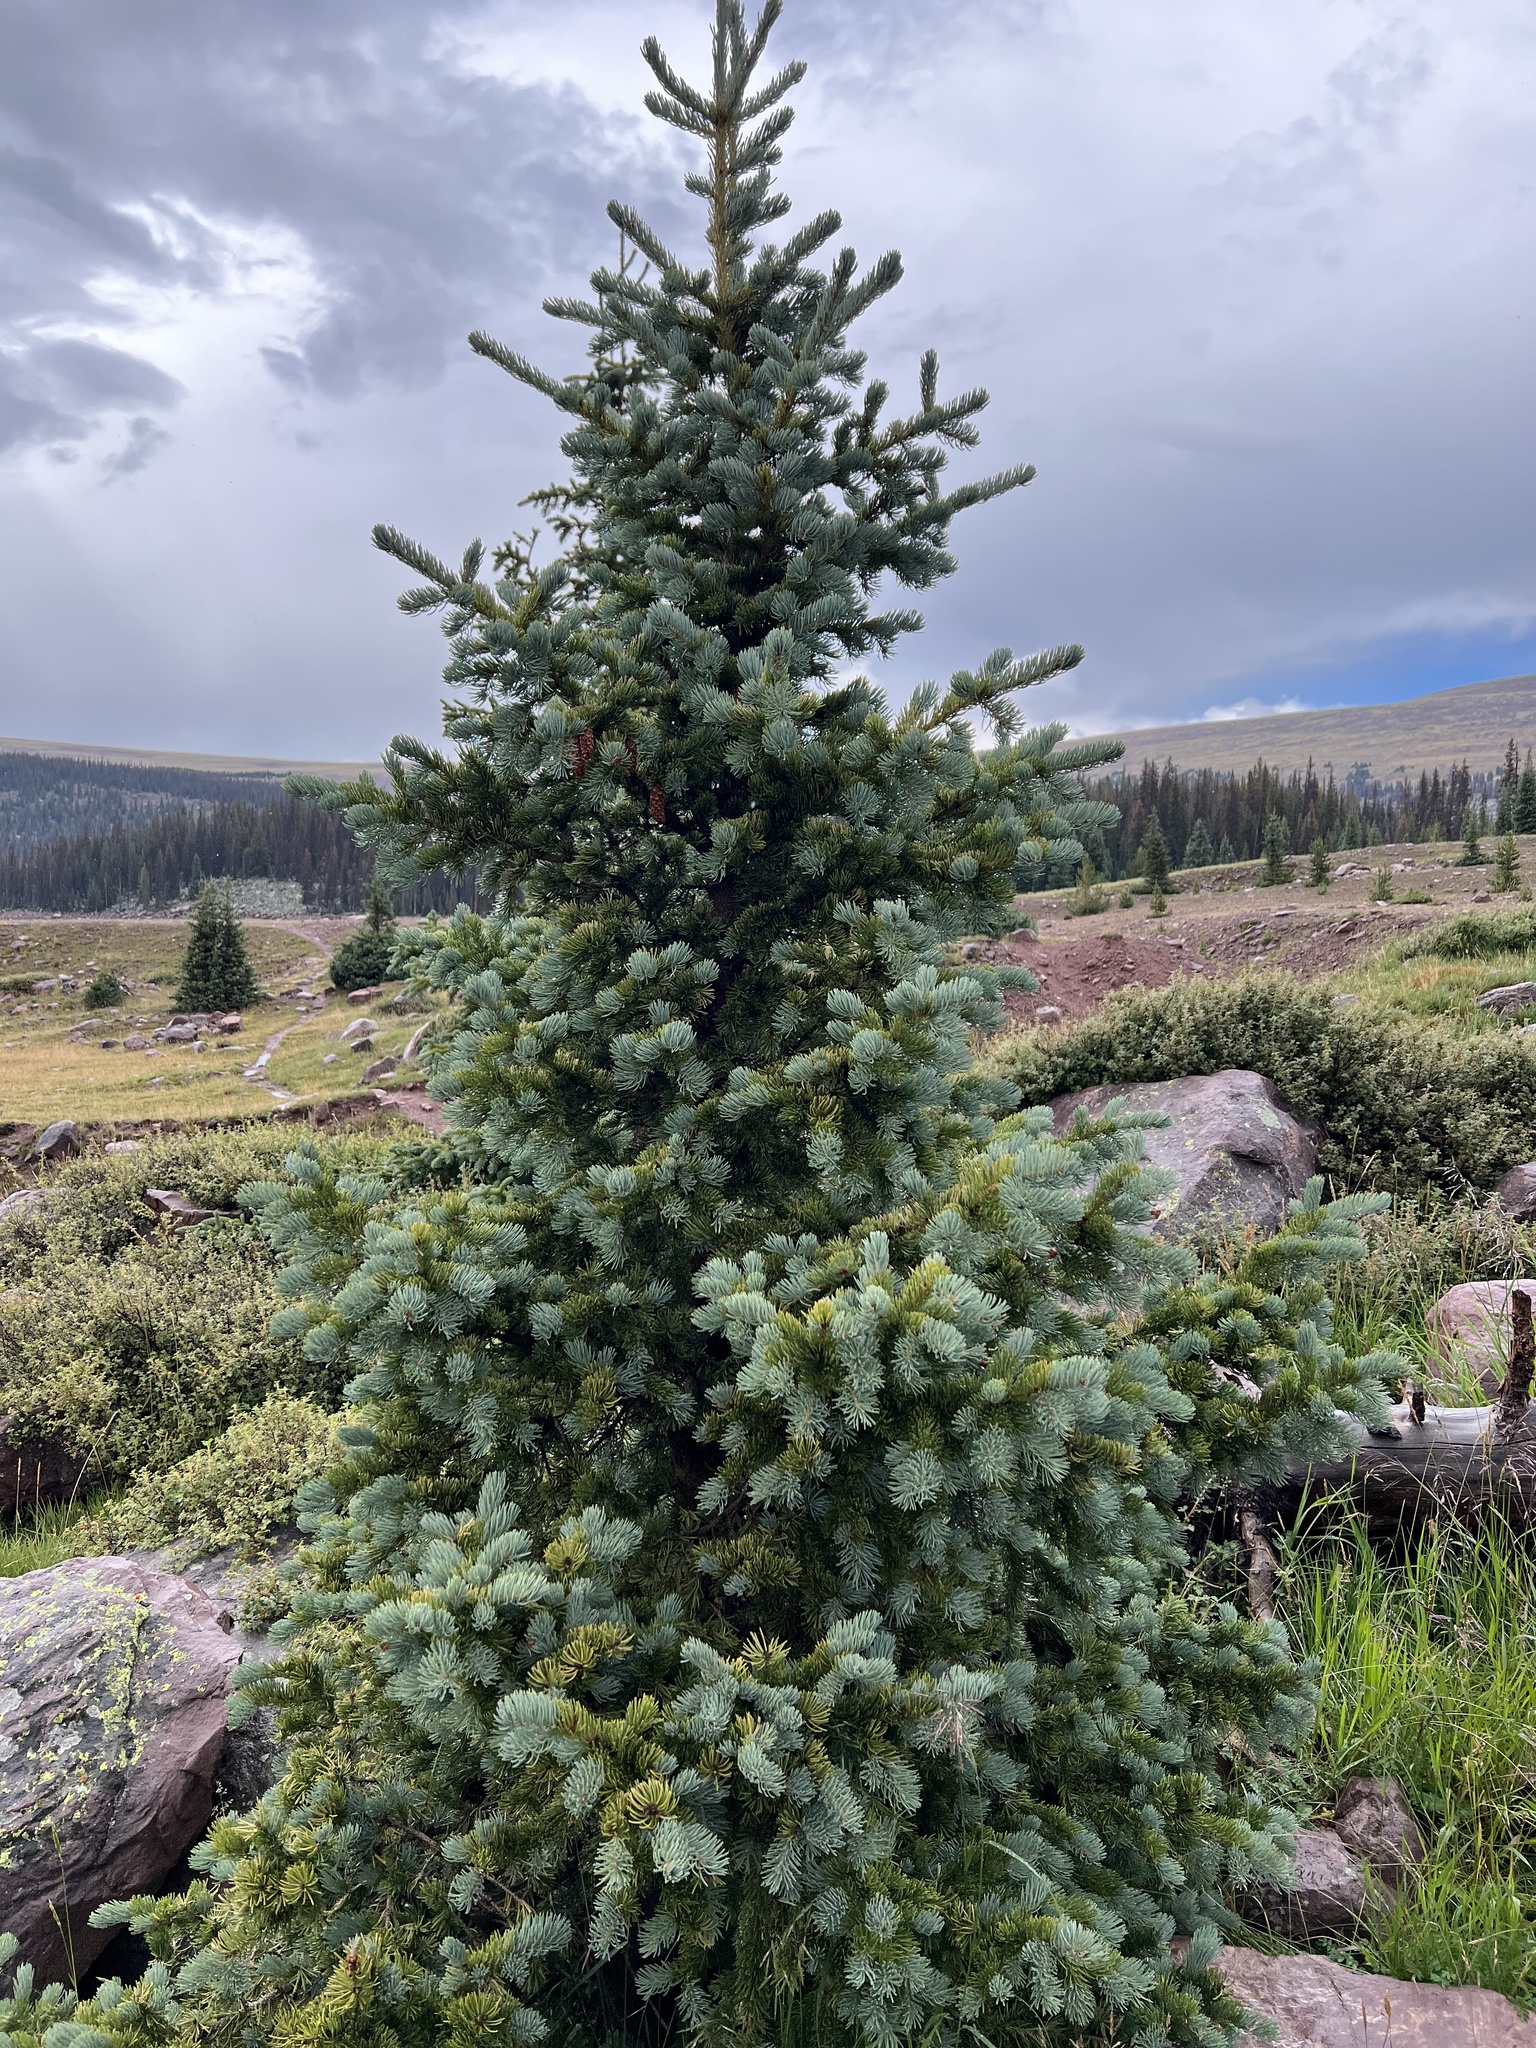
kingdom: Plantae
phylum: Tracheophyta
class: Pinopsida
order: Pinales
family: Pinaceae
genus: Picea
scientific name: Picea pungens
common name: Colorado spruce
